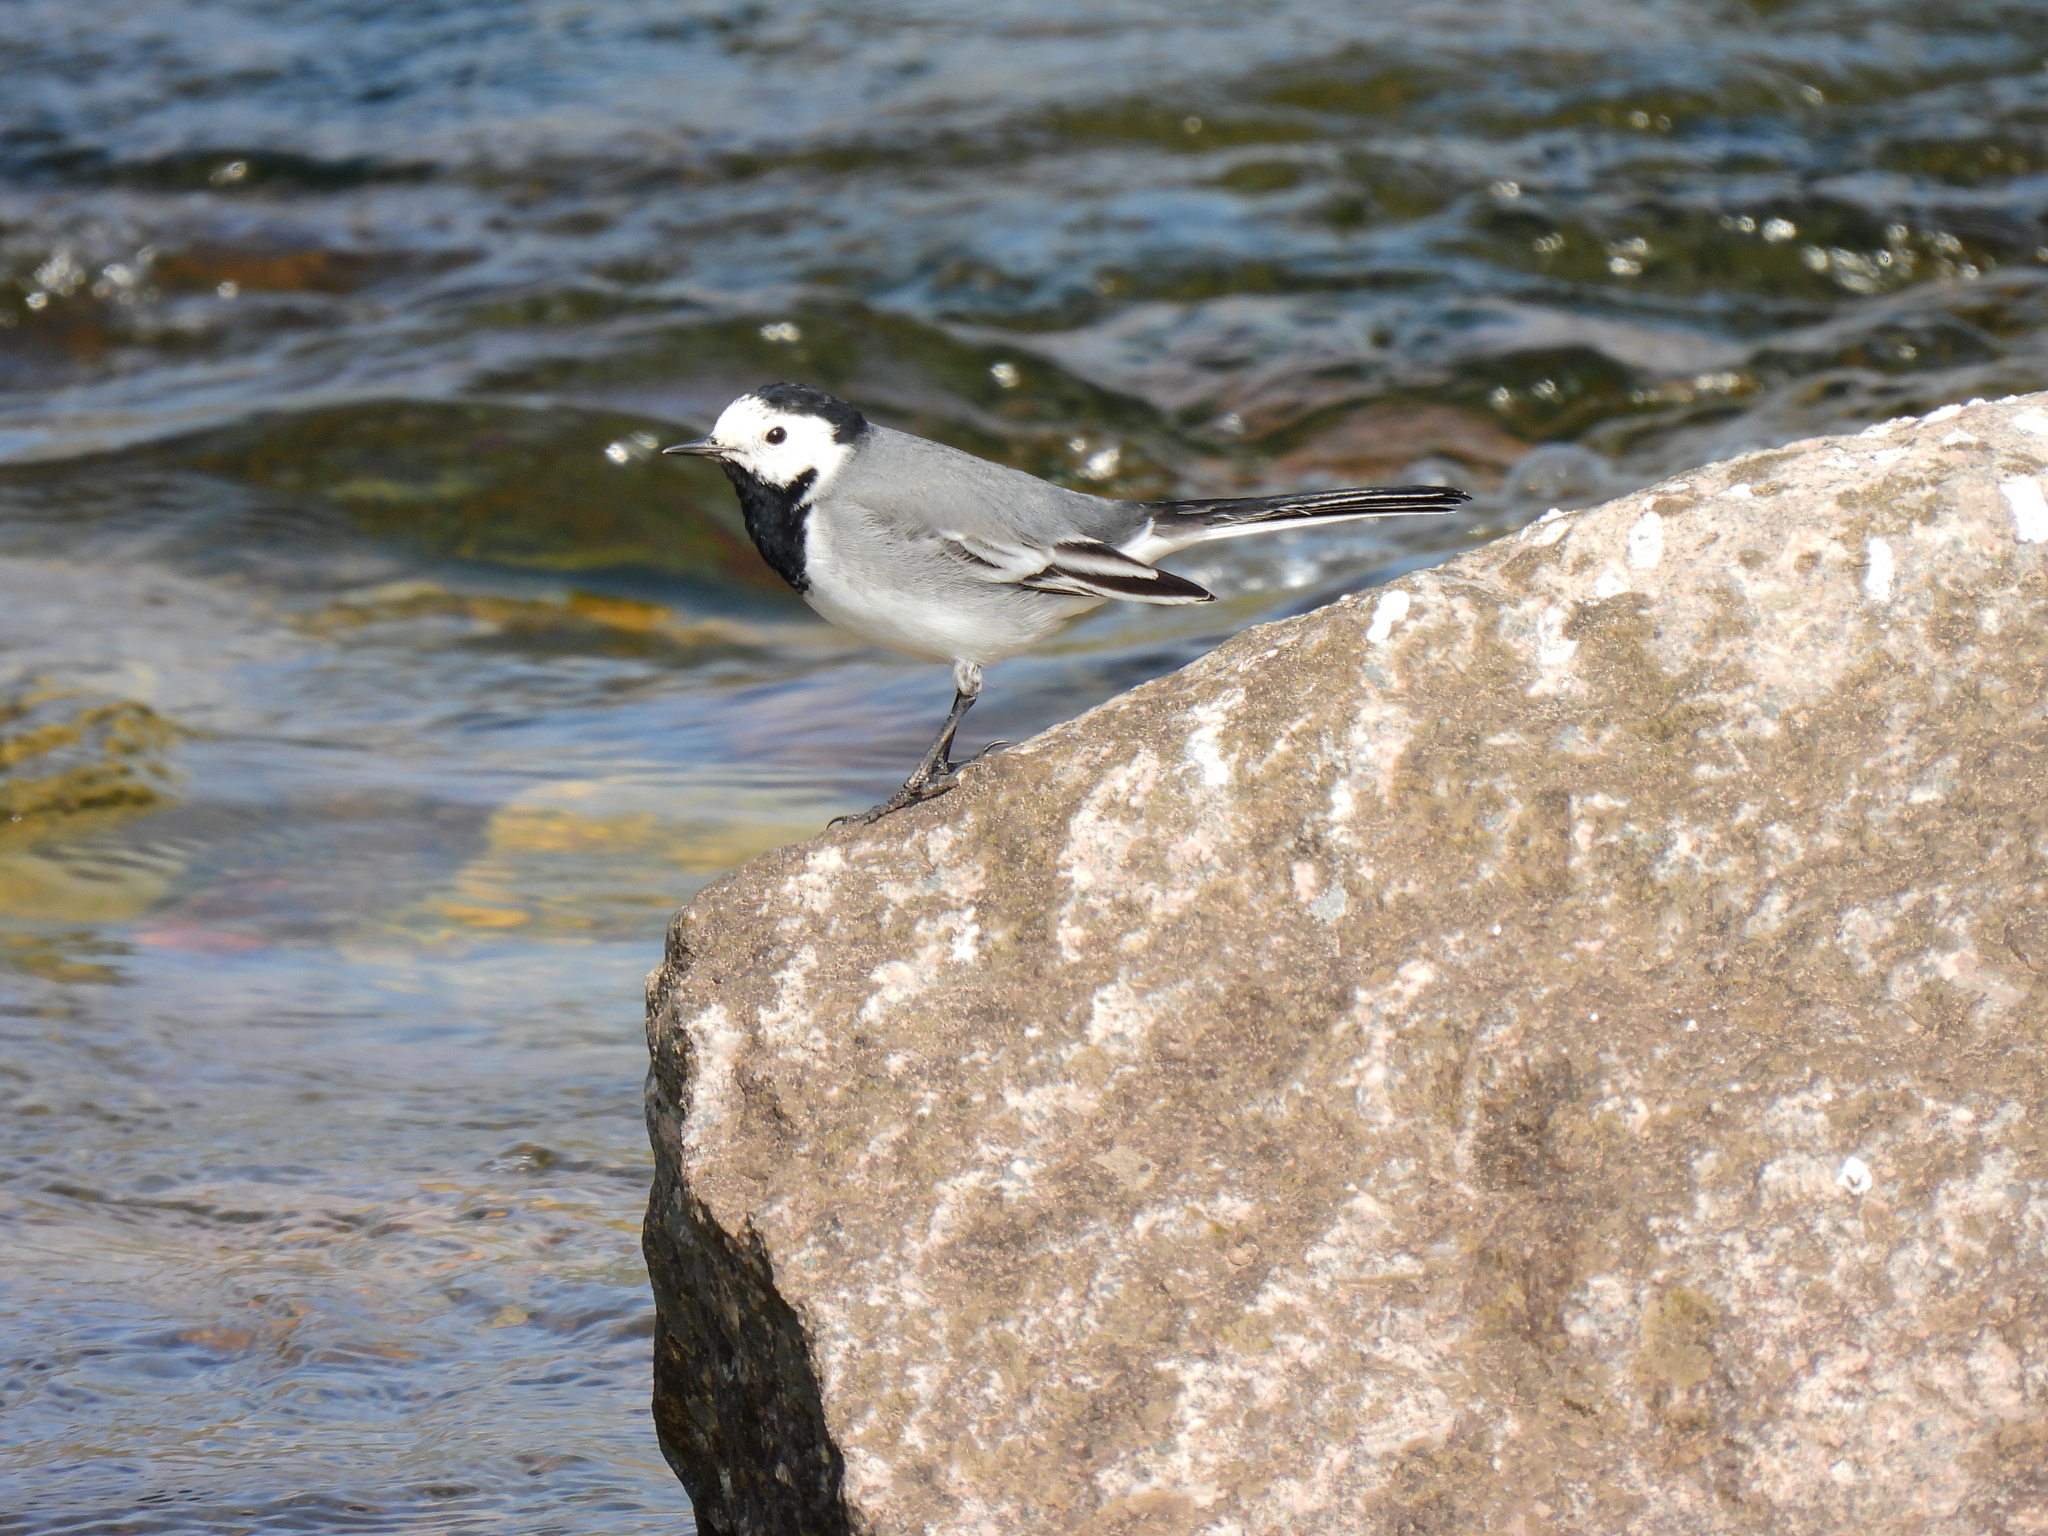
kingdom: Animalia
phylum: Chordata
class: Aves
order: Passeriformes
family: Motacillidae
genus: Motacilla
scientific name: Motacilla alba
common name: White wagtail
